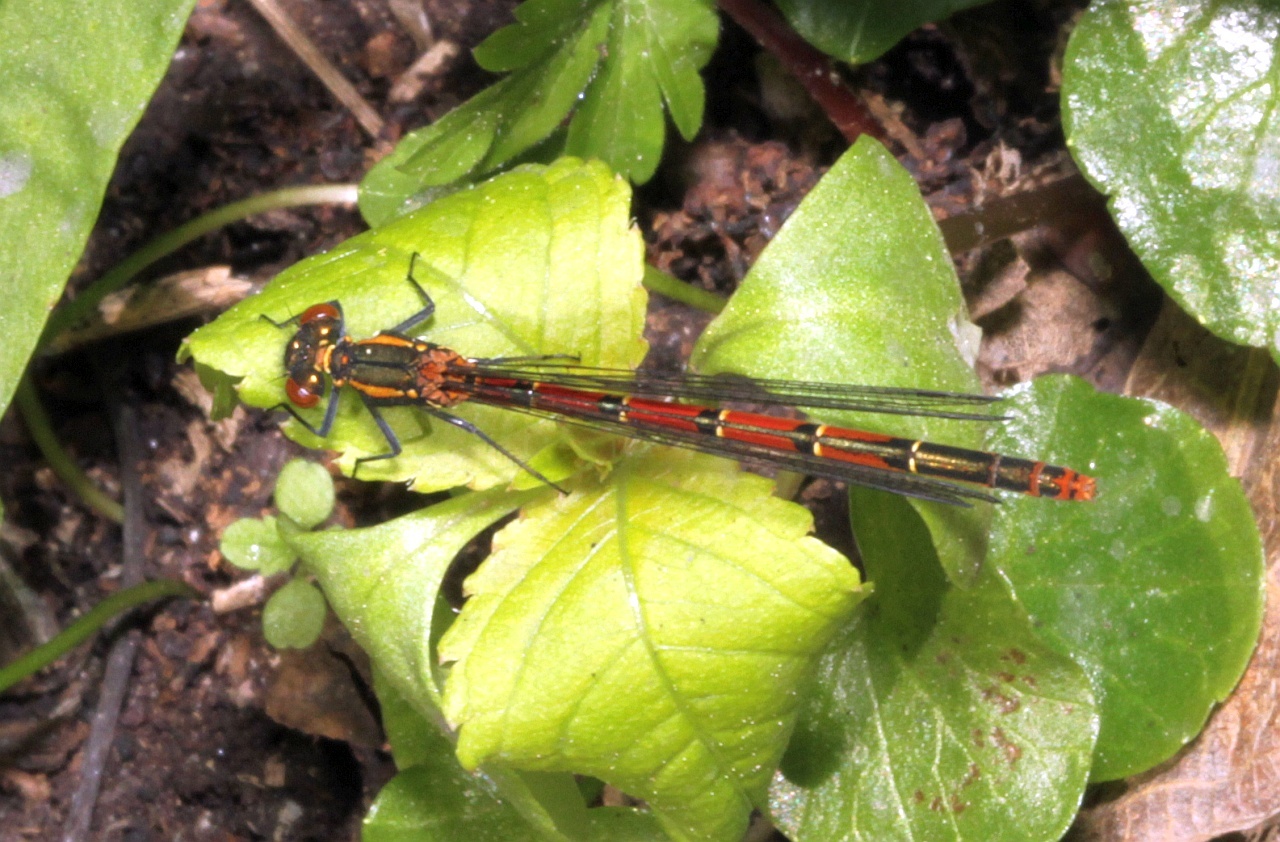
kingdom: Animalia
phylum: Arthropoda
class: Insecta
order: Odonata
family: Coenagrionidae
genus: Pyrrhosoma
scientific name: Pyrrhosoma nymphula
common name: Large red damsel
